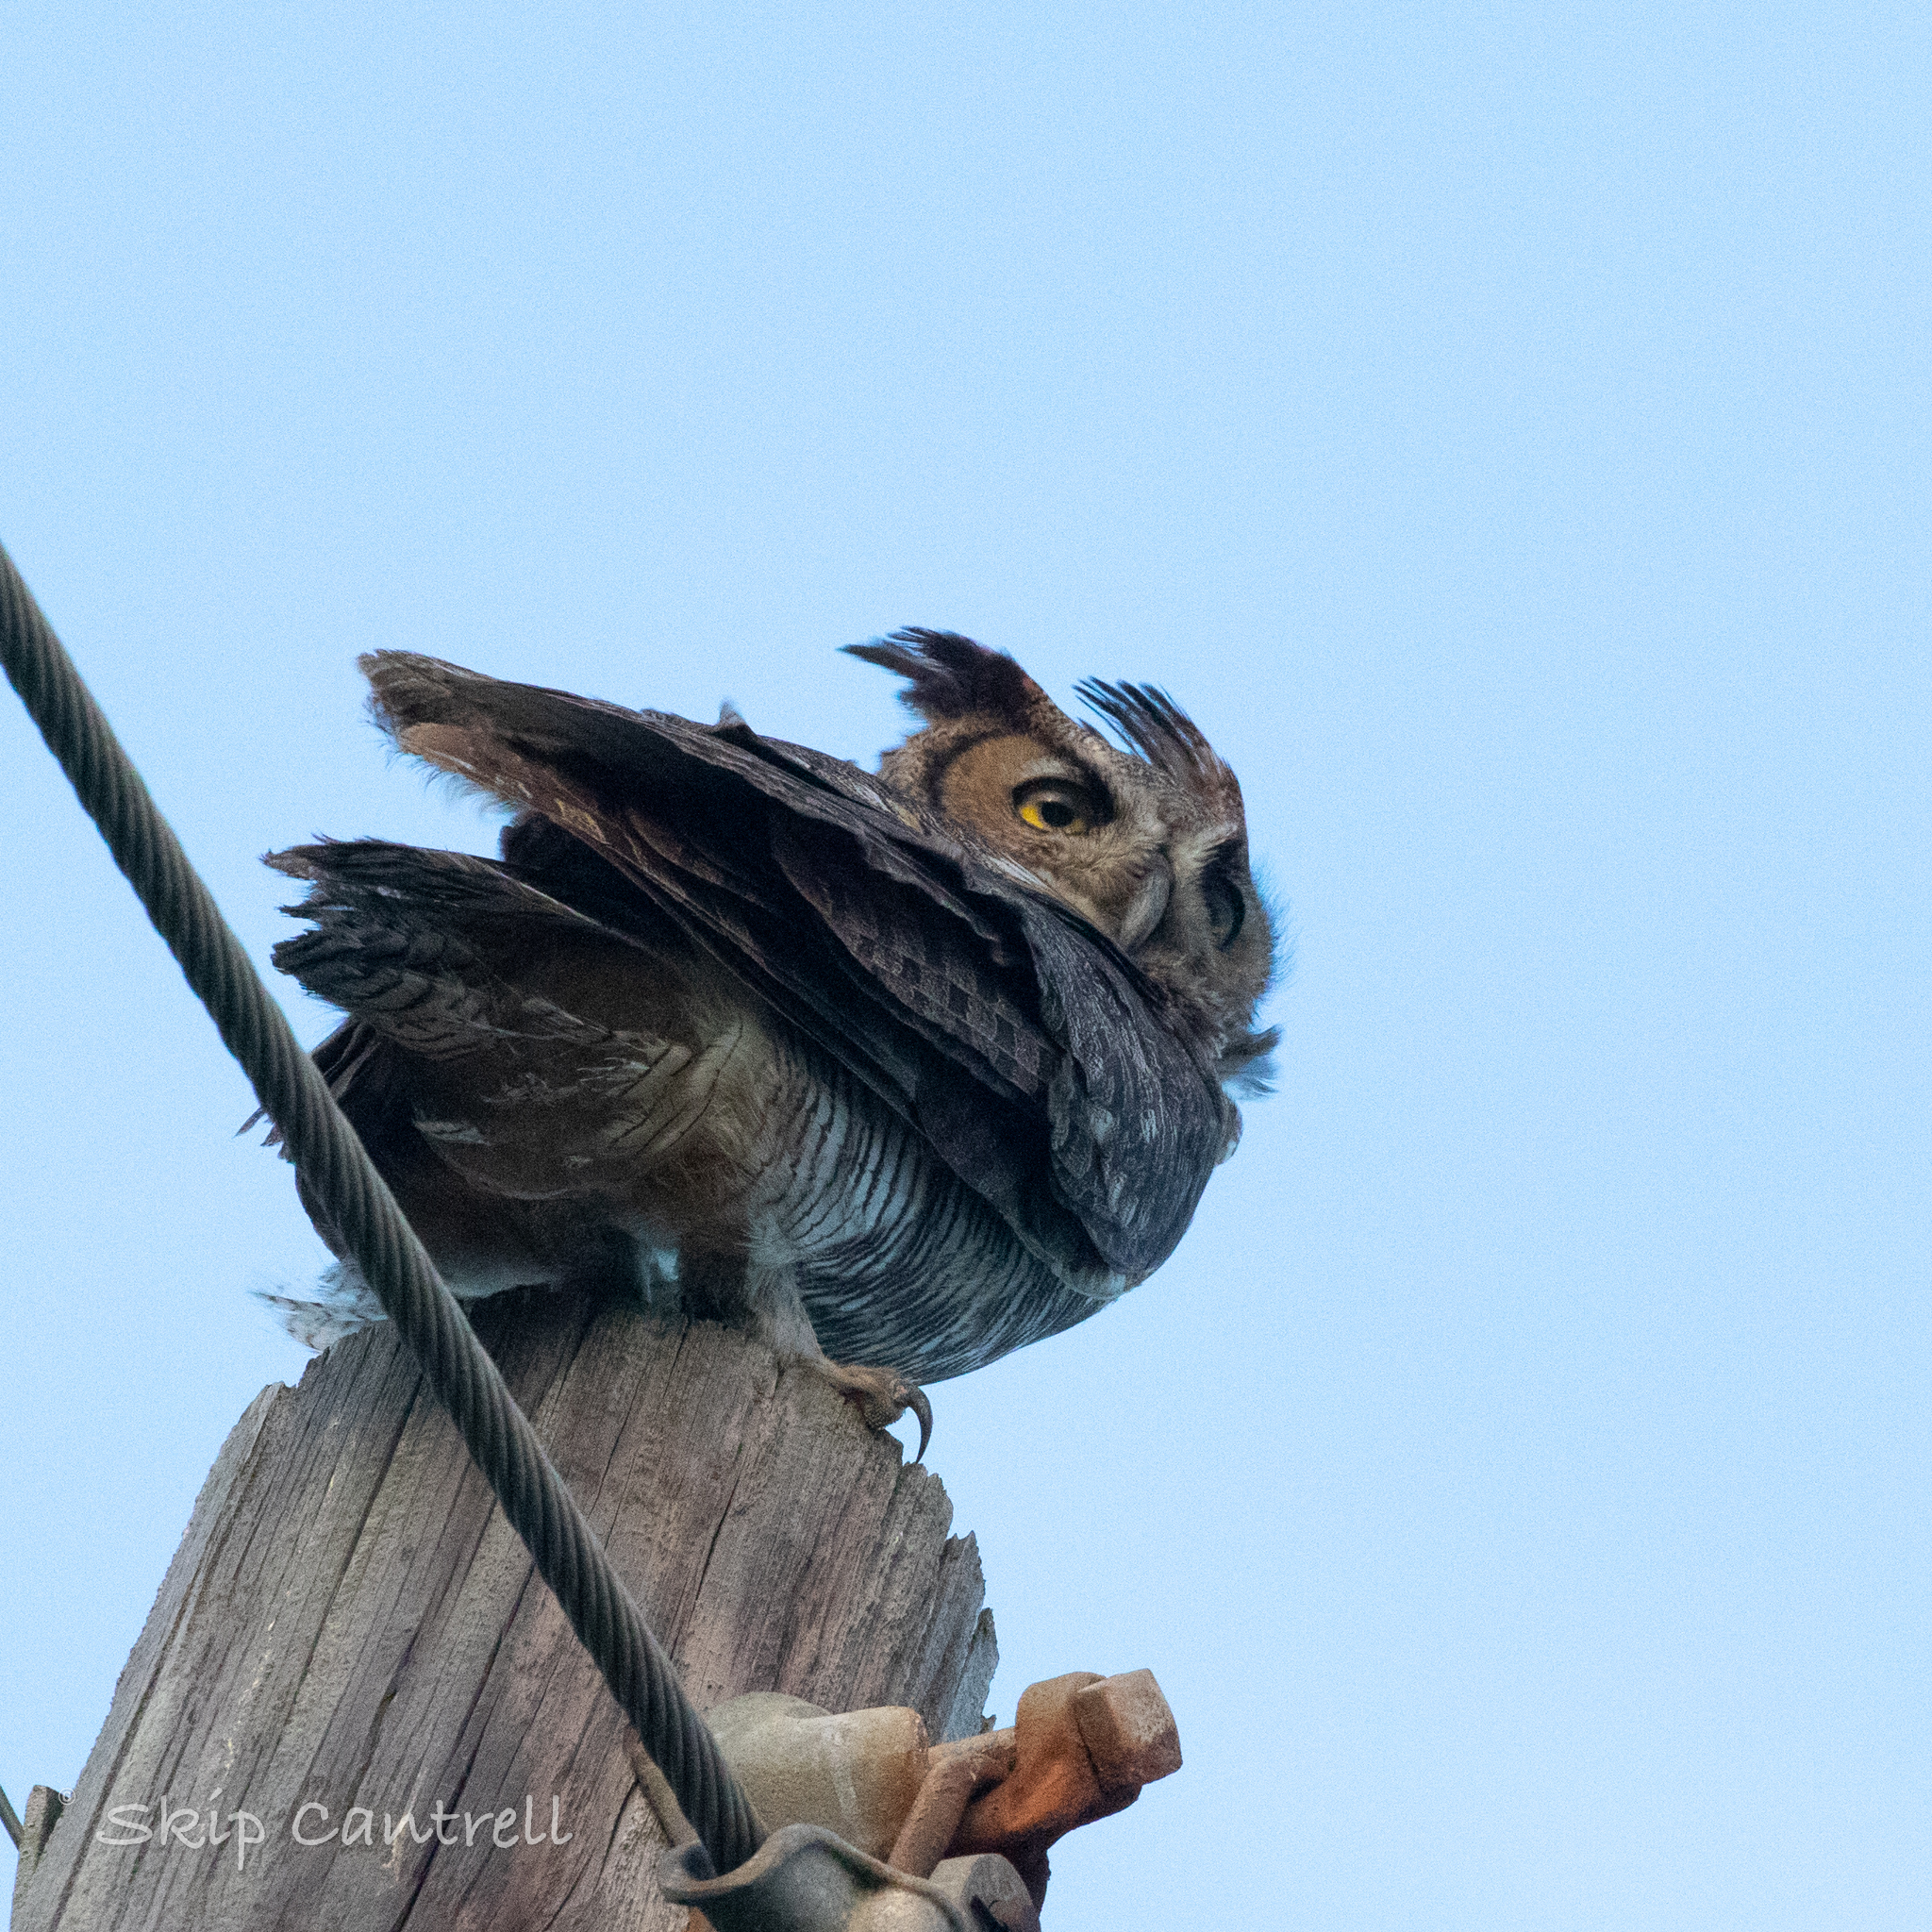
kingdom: Animalia
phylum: Chordata
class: Aves
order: Strigiformes
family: Strigidae
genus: Bubo
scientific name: Bubo virginianus
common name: Great horned owl
